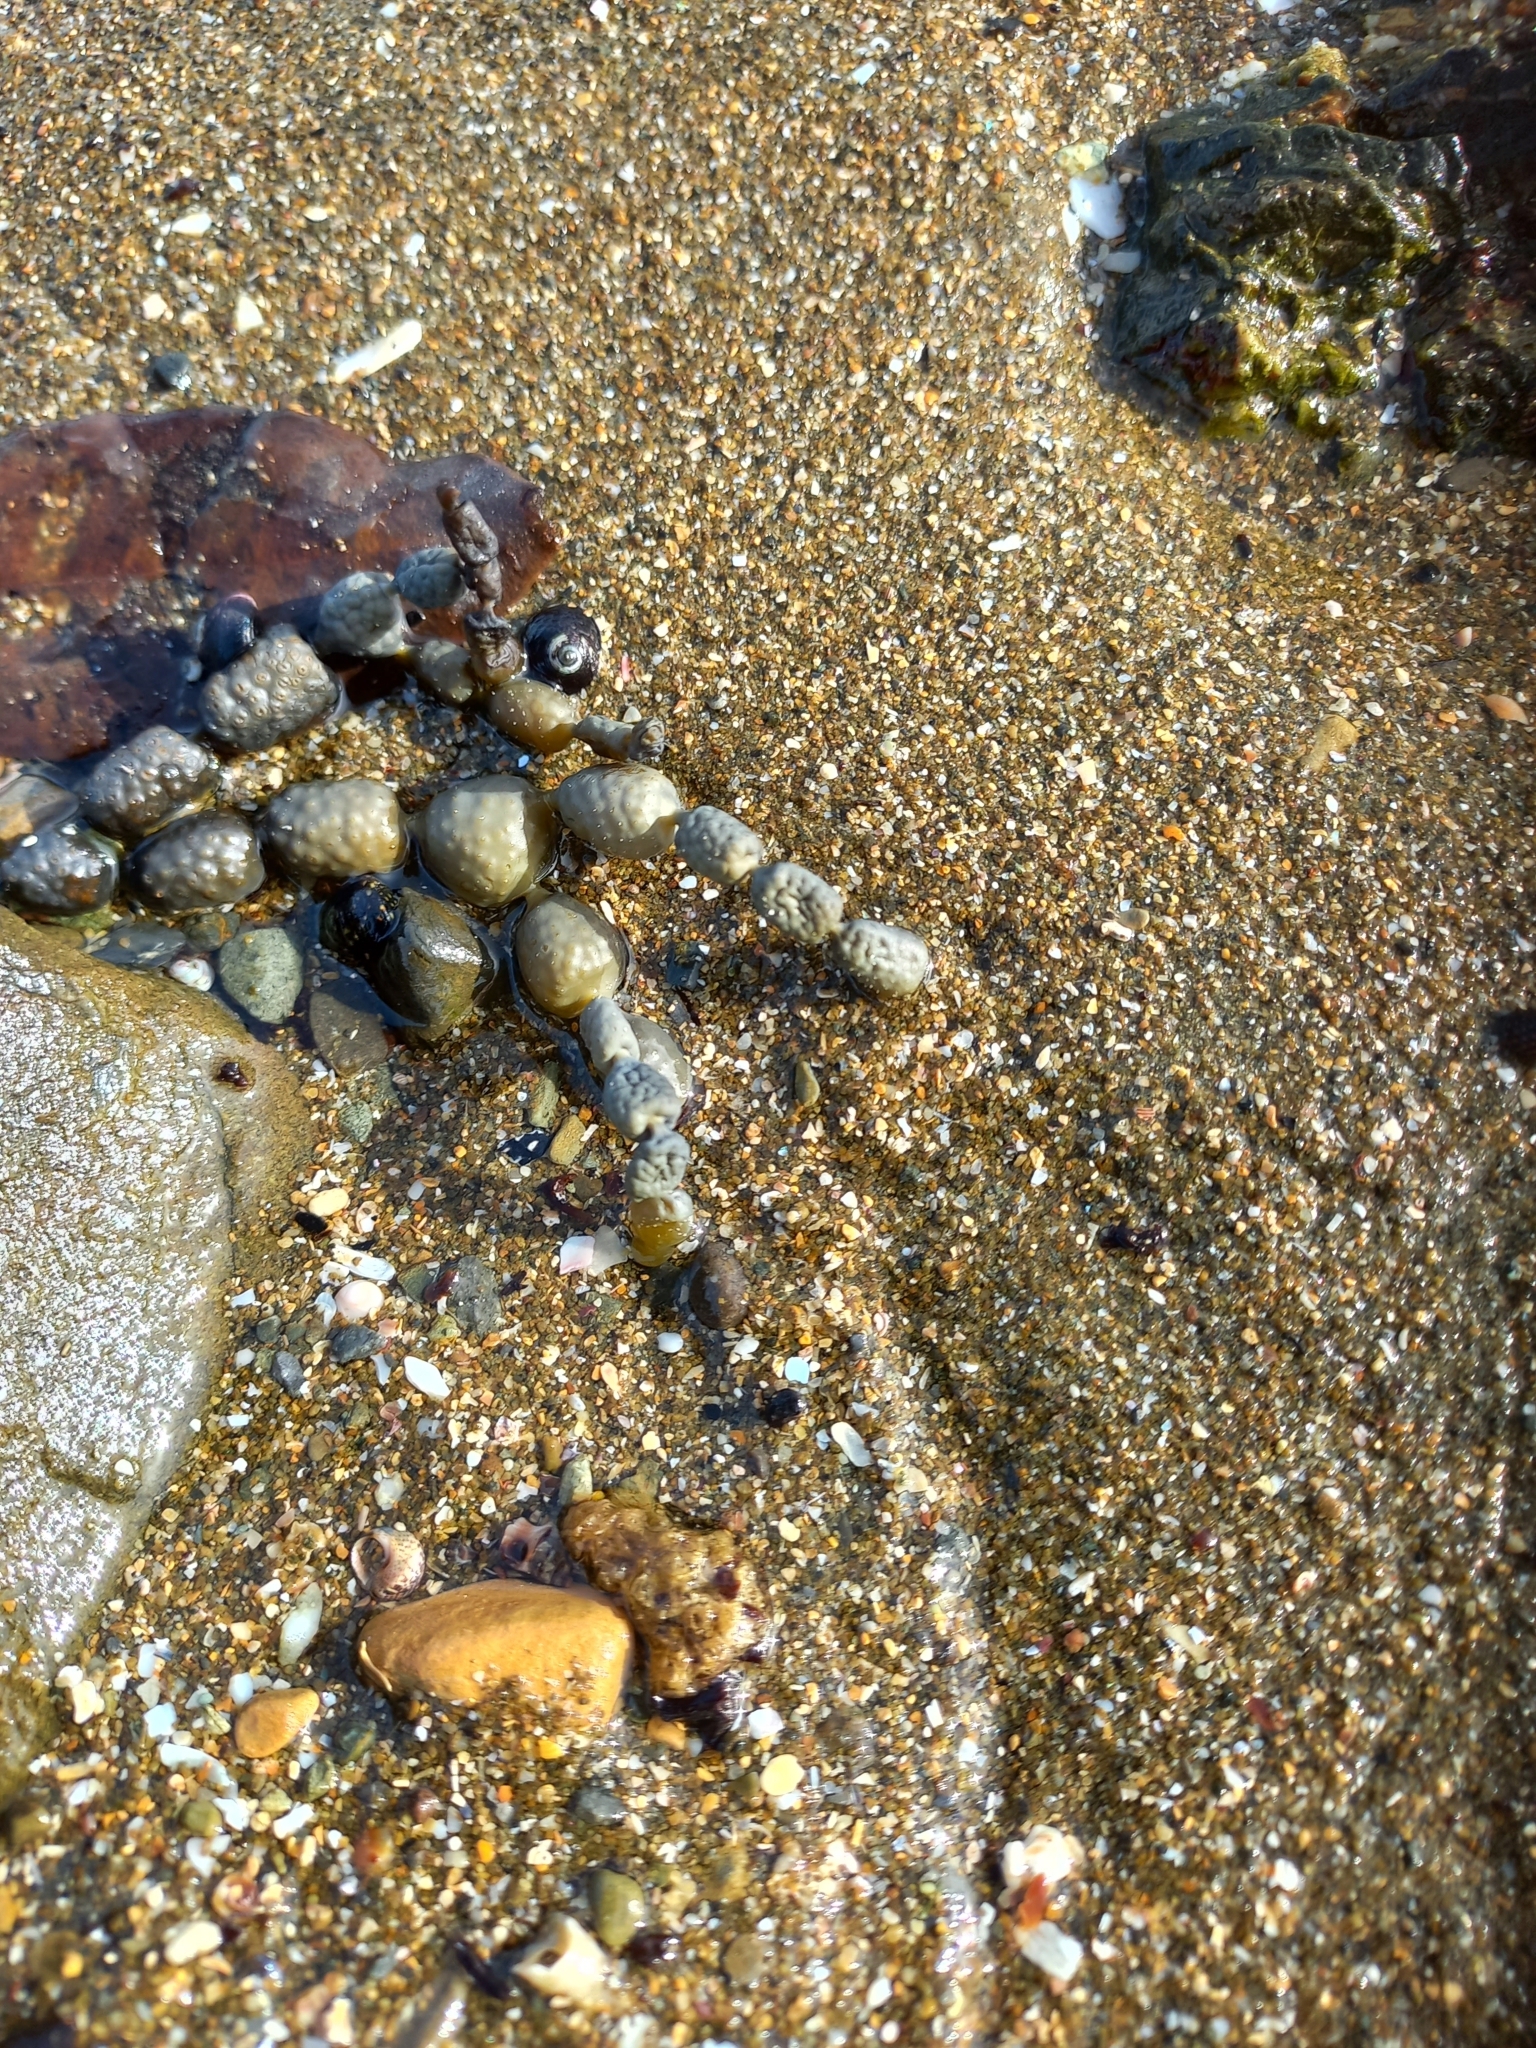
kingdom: Chromista
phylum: Ochrophyta
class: Phaeophyceae
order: Fucales
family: Hormosiraceae
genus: Hormosira
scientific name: Hormosira banksii
